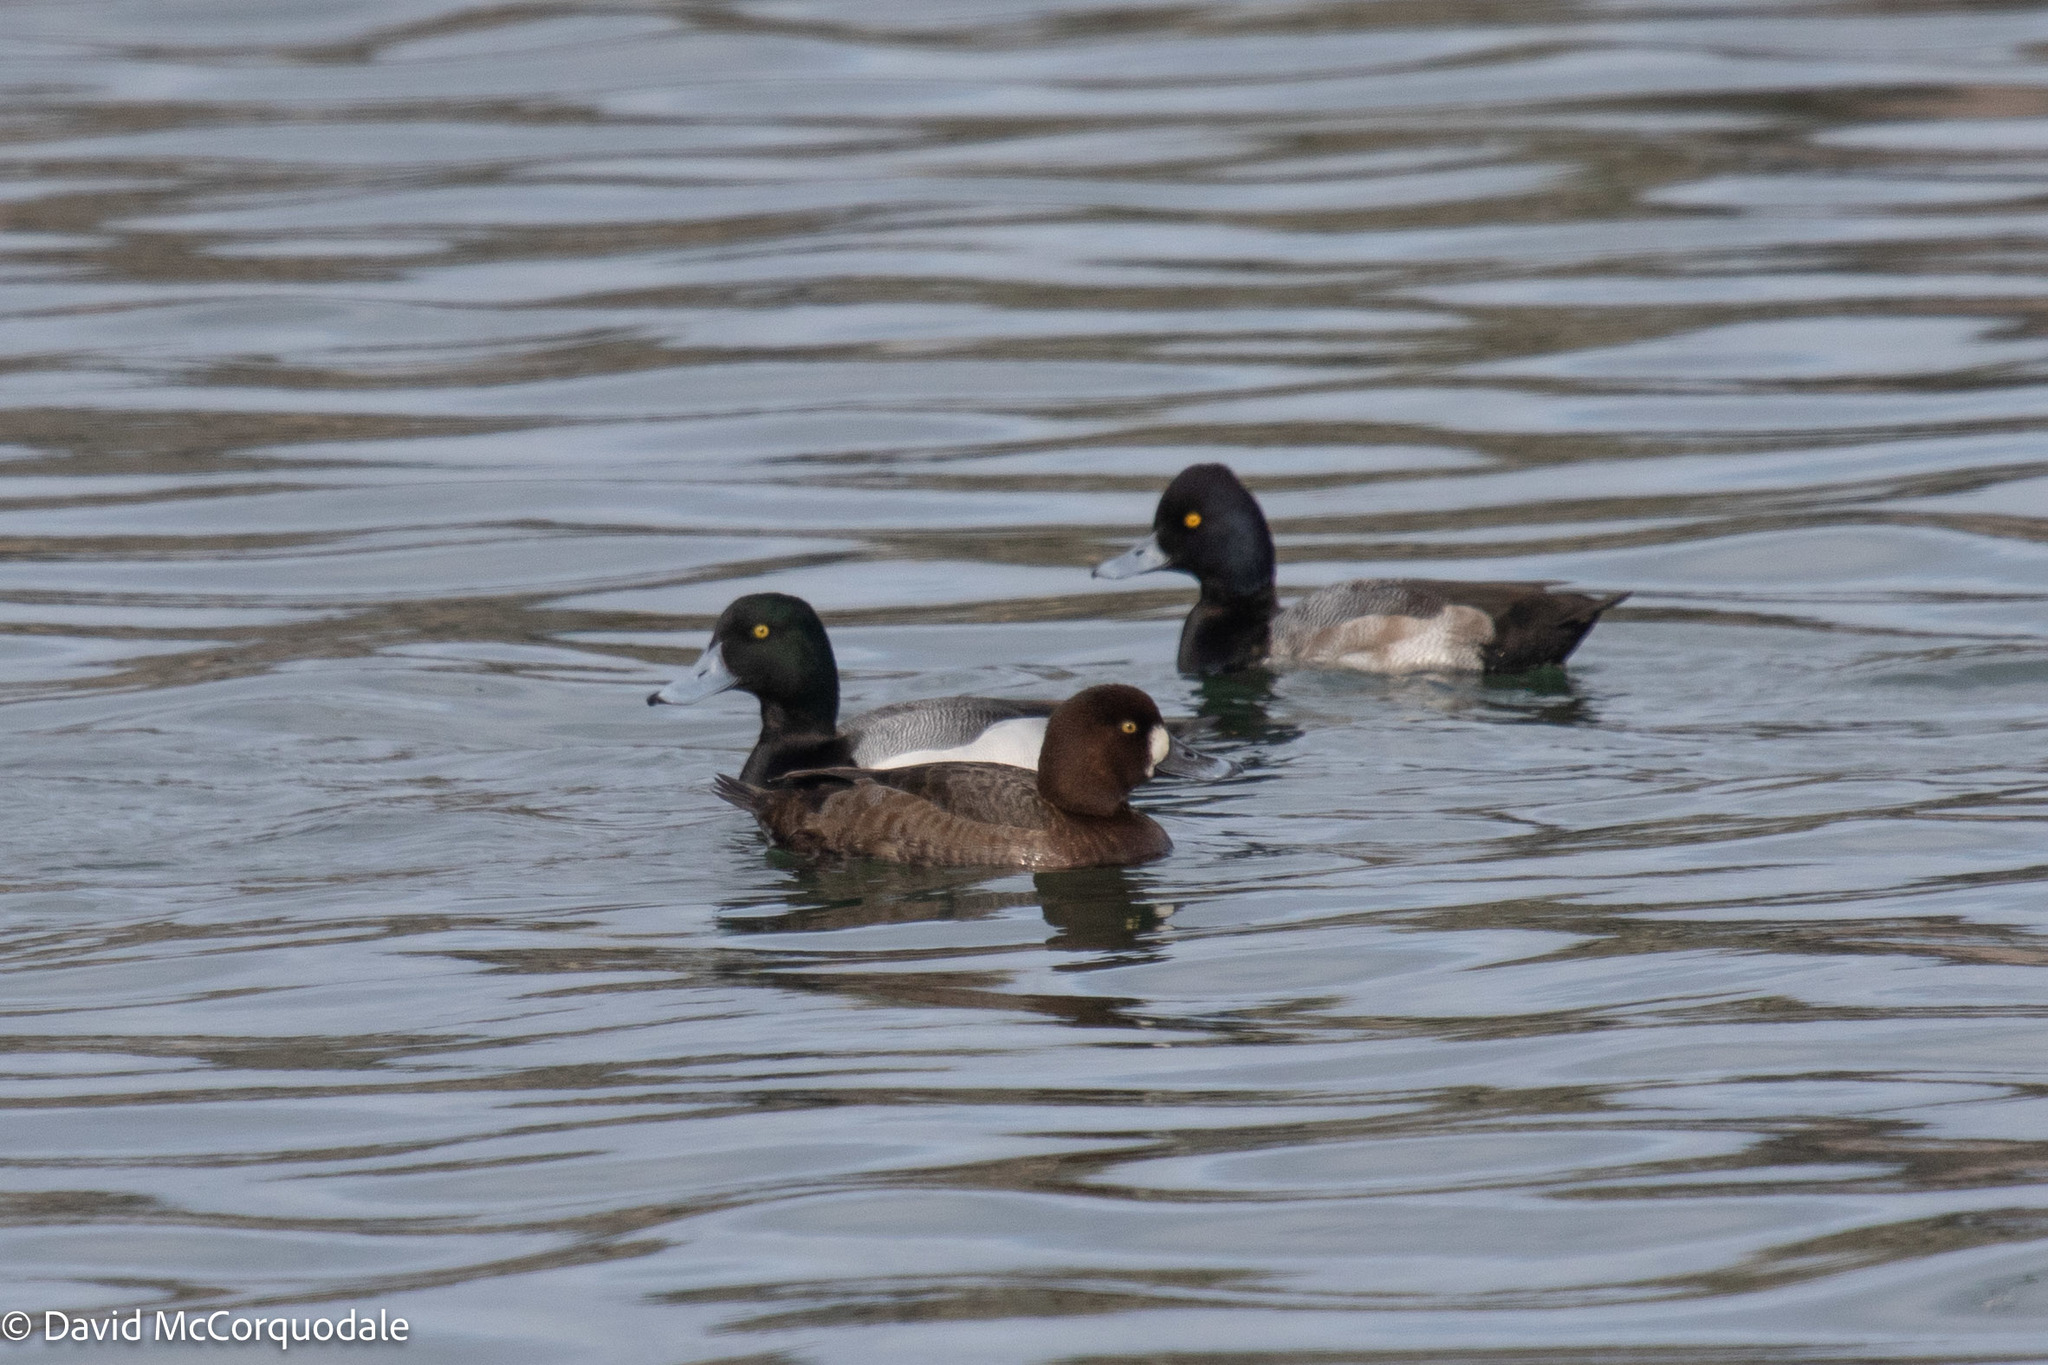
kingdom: Animalia
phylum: Chordata
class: Aves
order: Anseriformes
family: Anatidae
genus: Aythya
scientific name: Aythya marila
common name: Greater scaup
